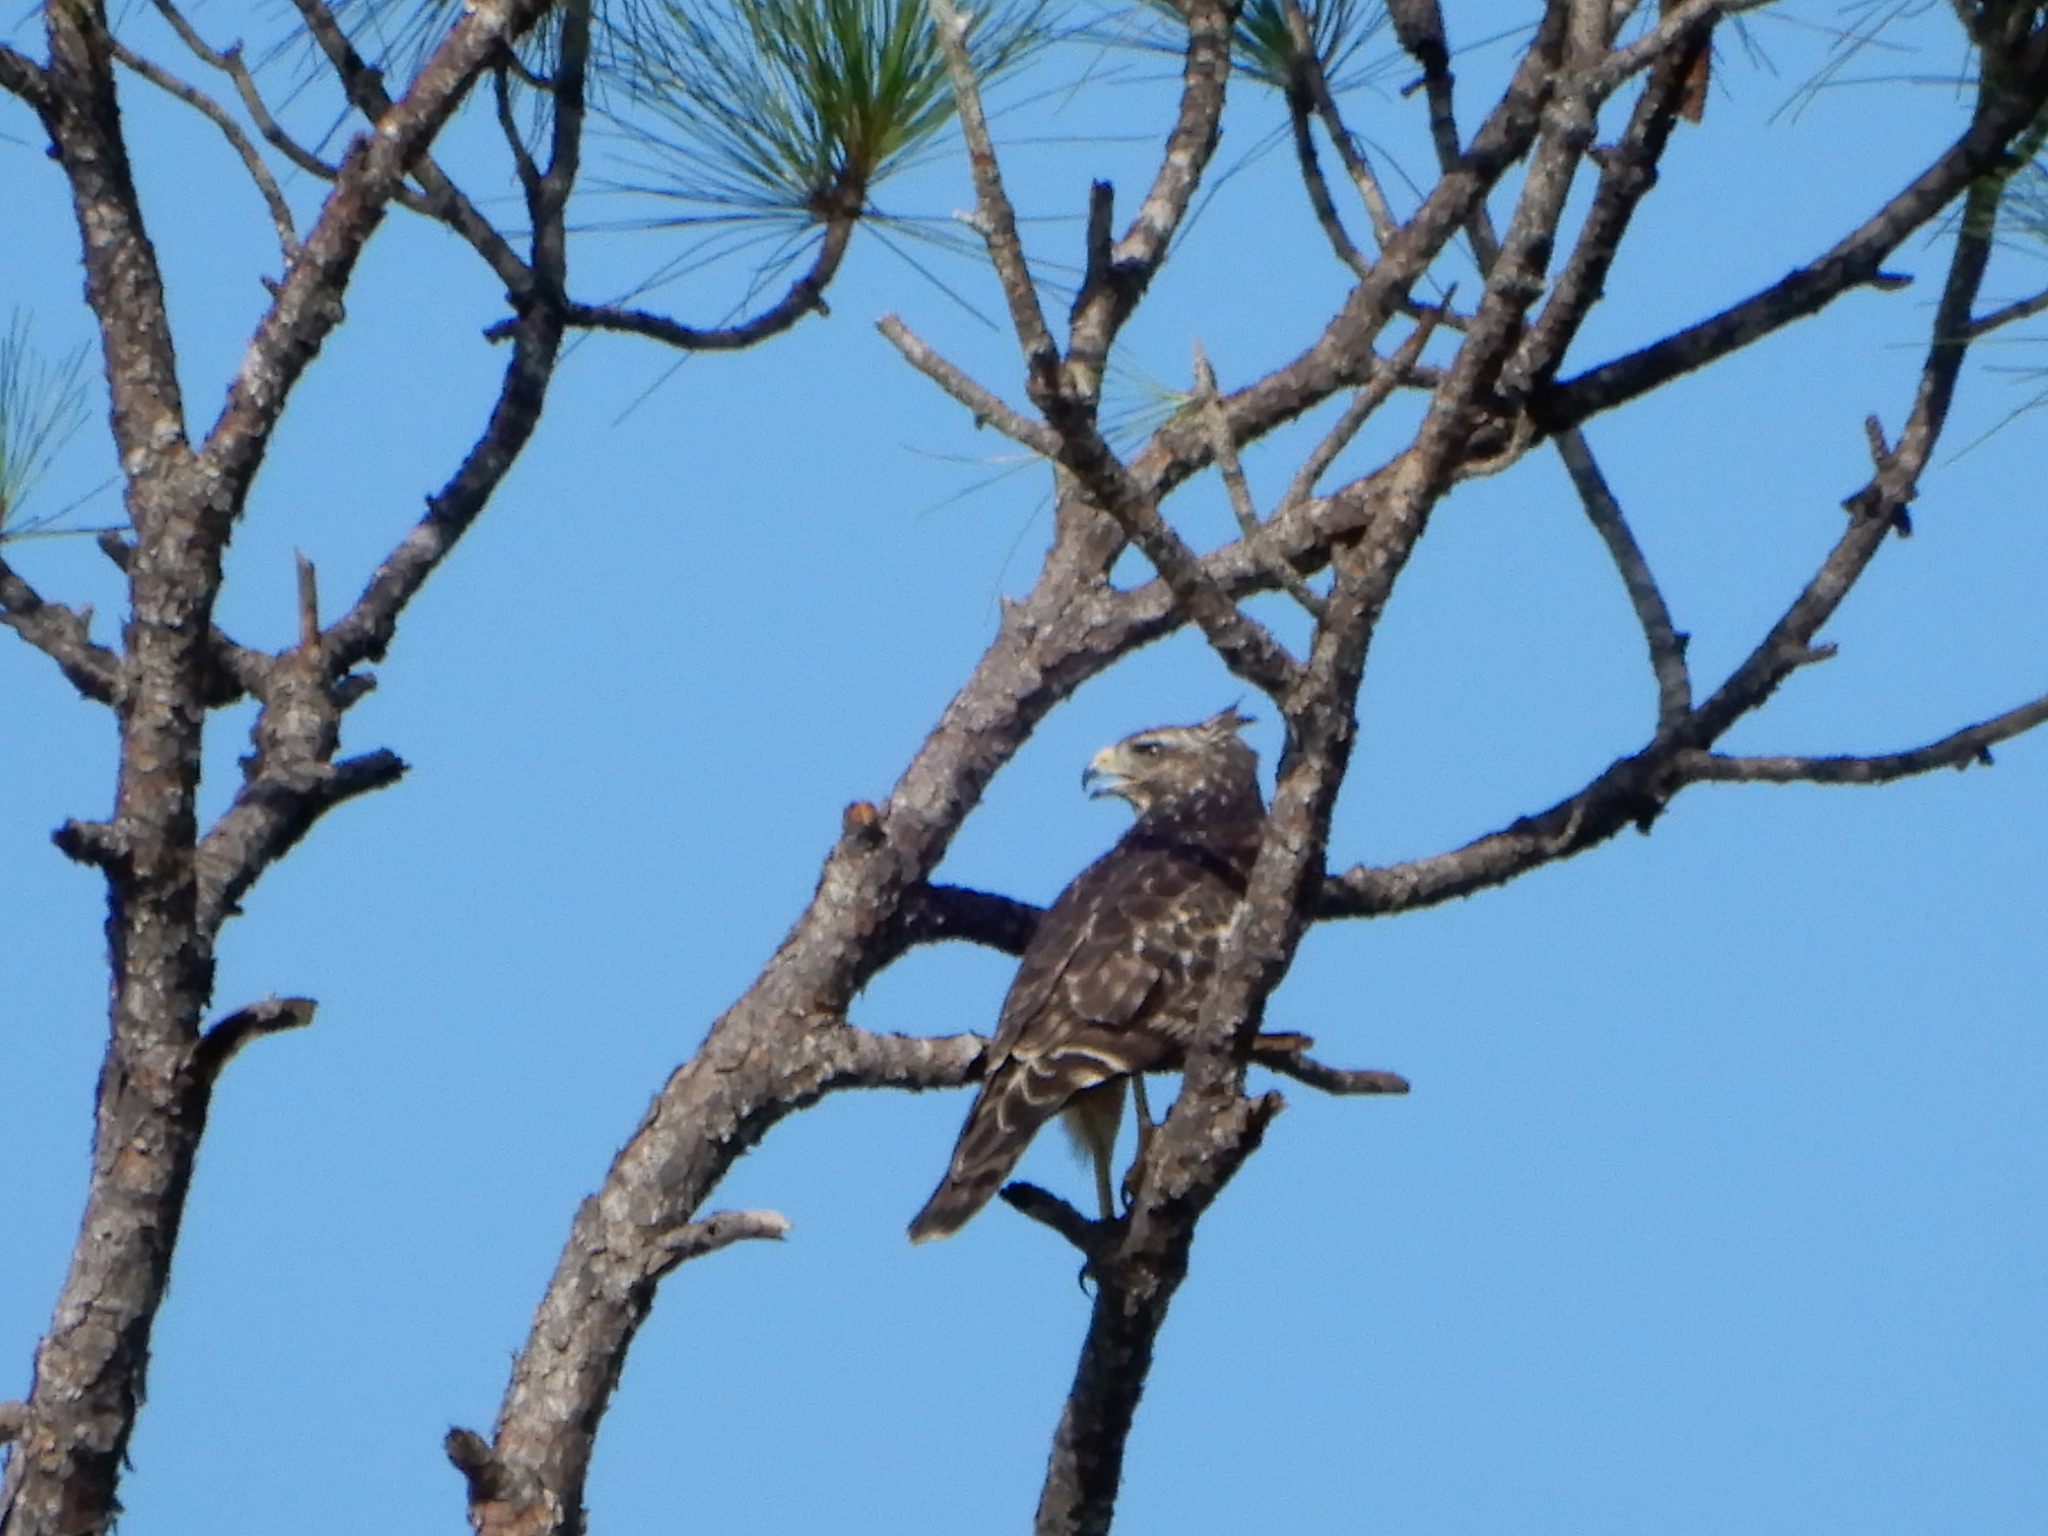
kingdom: Animalia
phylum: Chordata
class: Aves
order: Accipitriformes
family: Accipitridae
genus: Buteo
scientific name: Buteo lineatus
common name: Red-shouldered hawk
